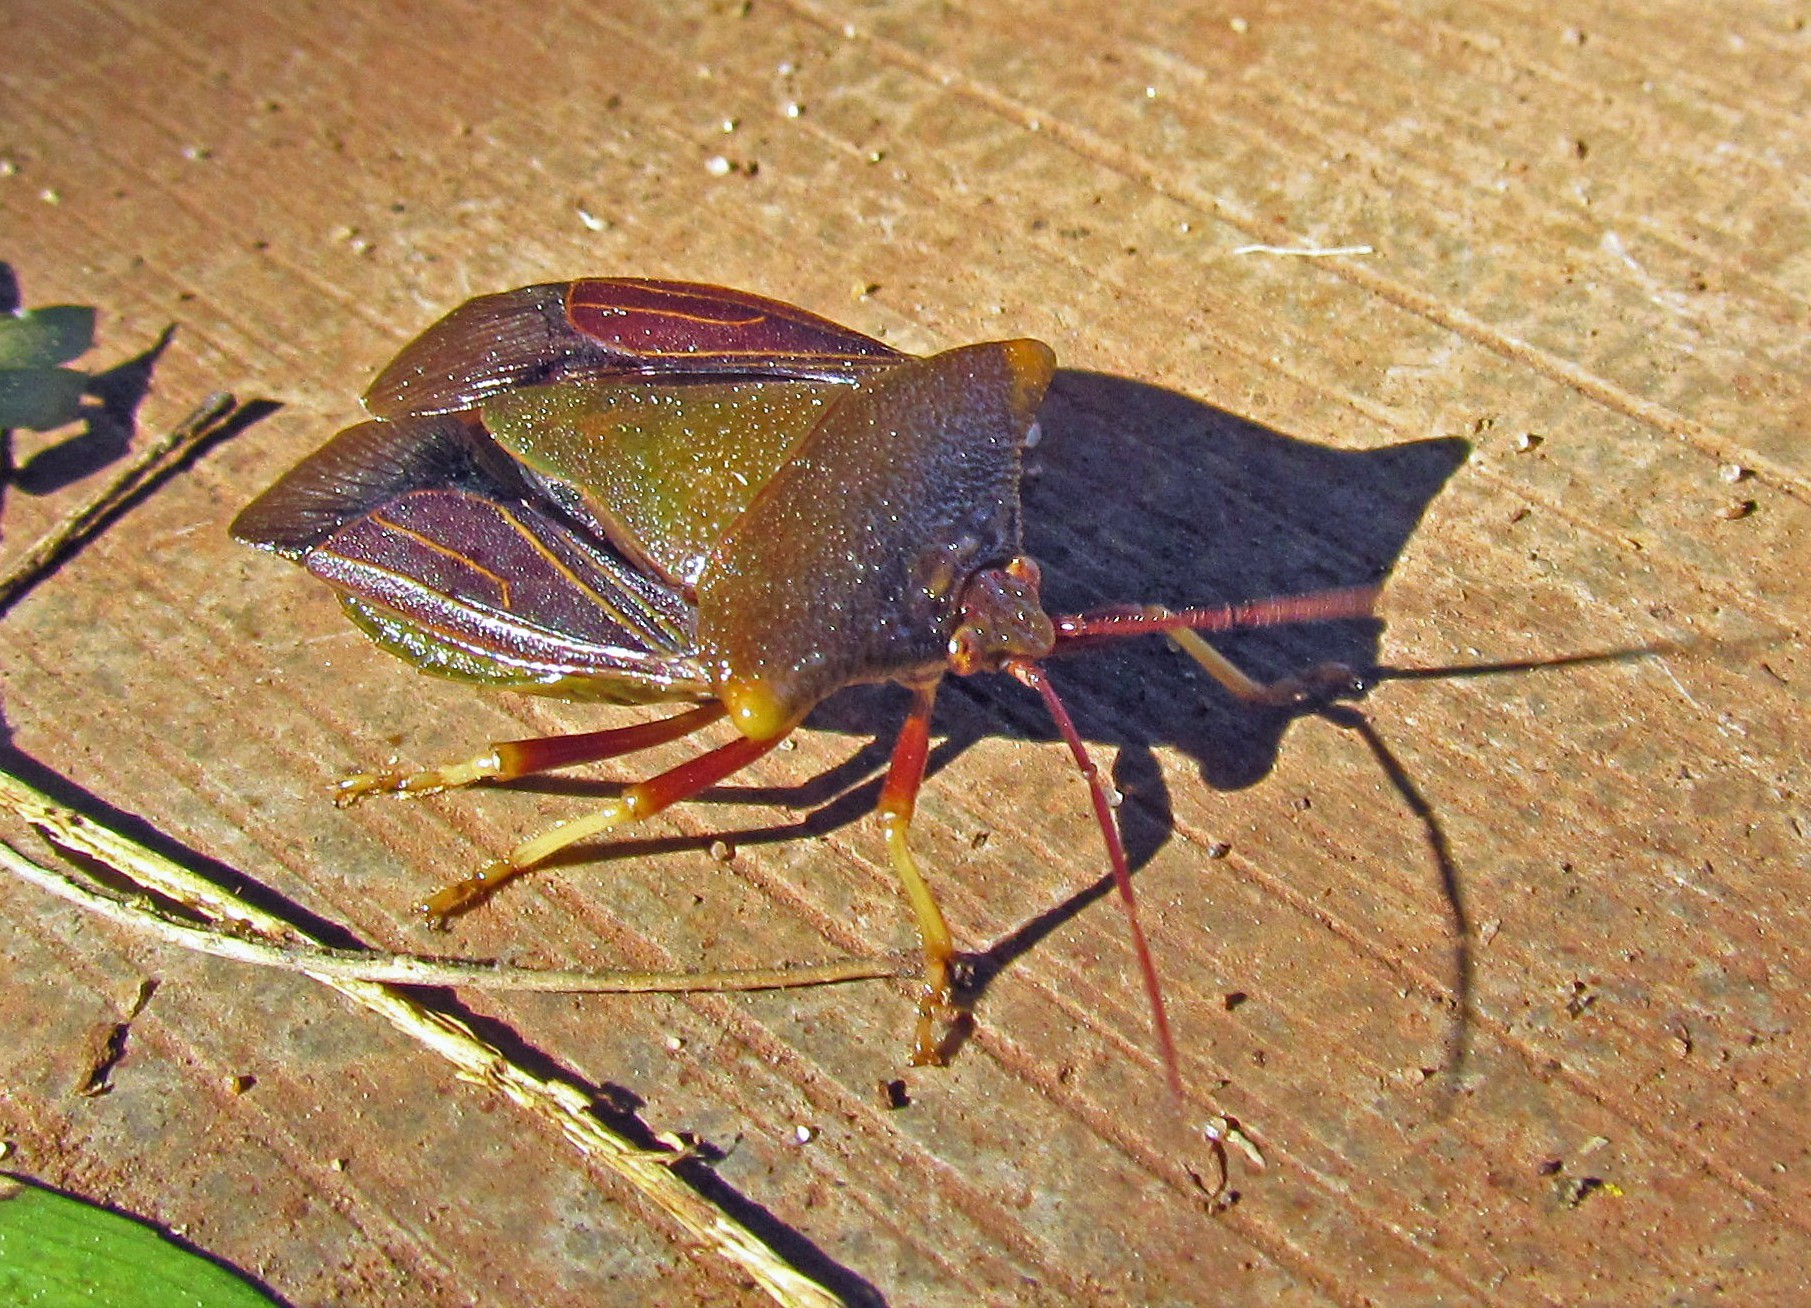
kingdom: Animalia
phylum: Arthropoda
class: Insecta
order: Hemiptera
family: Pentatomidae
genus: Peromatus
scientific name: Peromatus sulcifer
